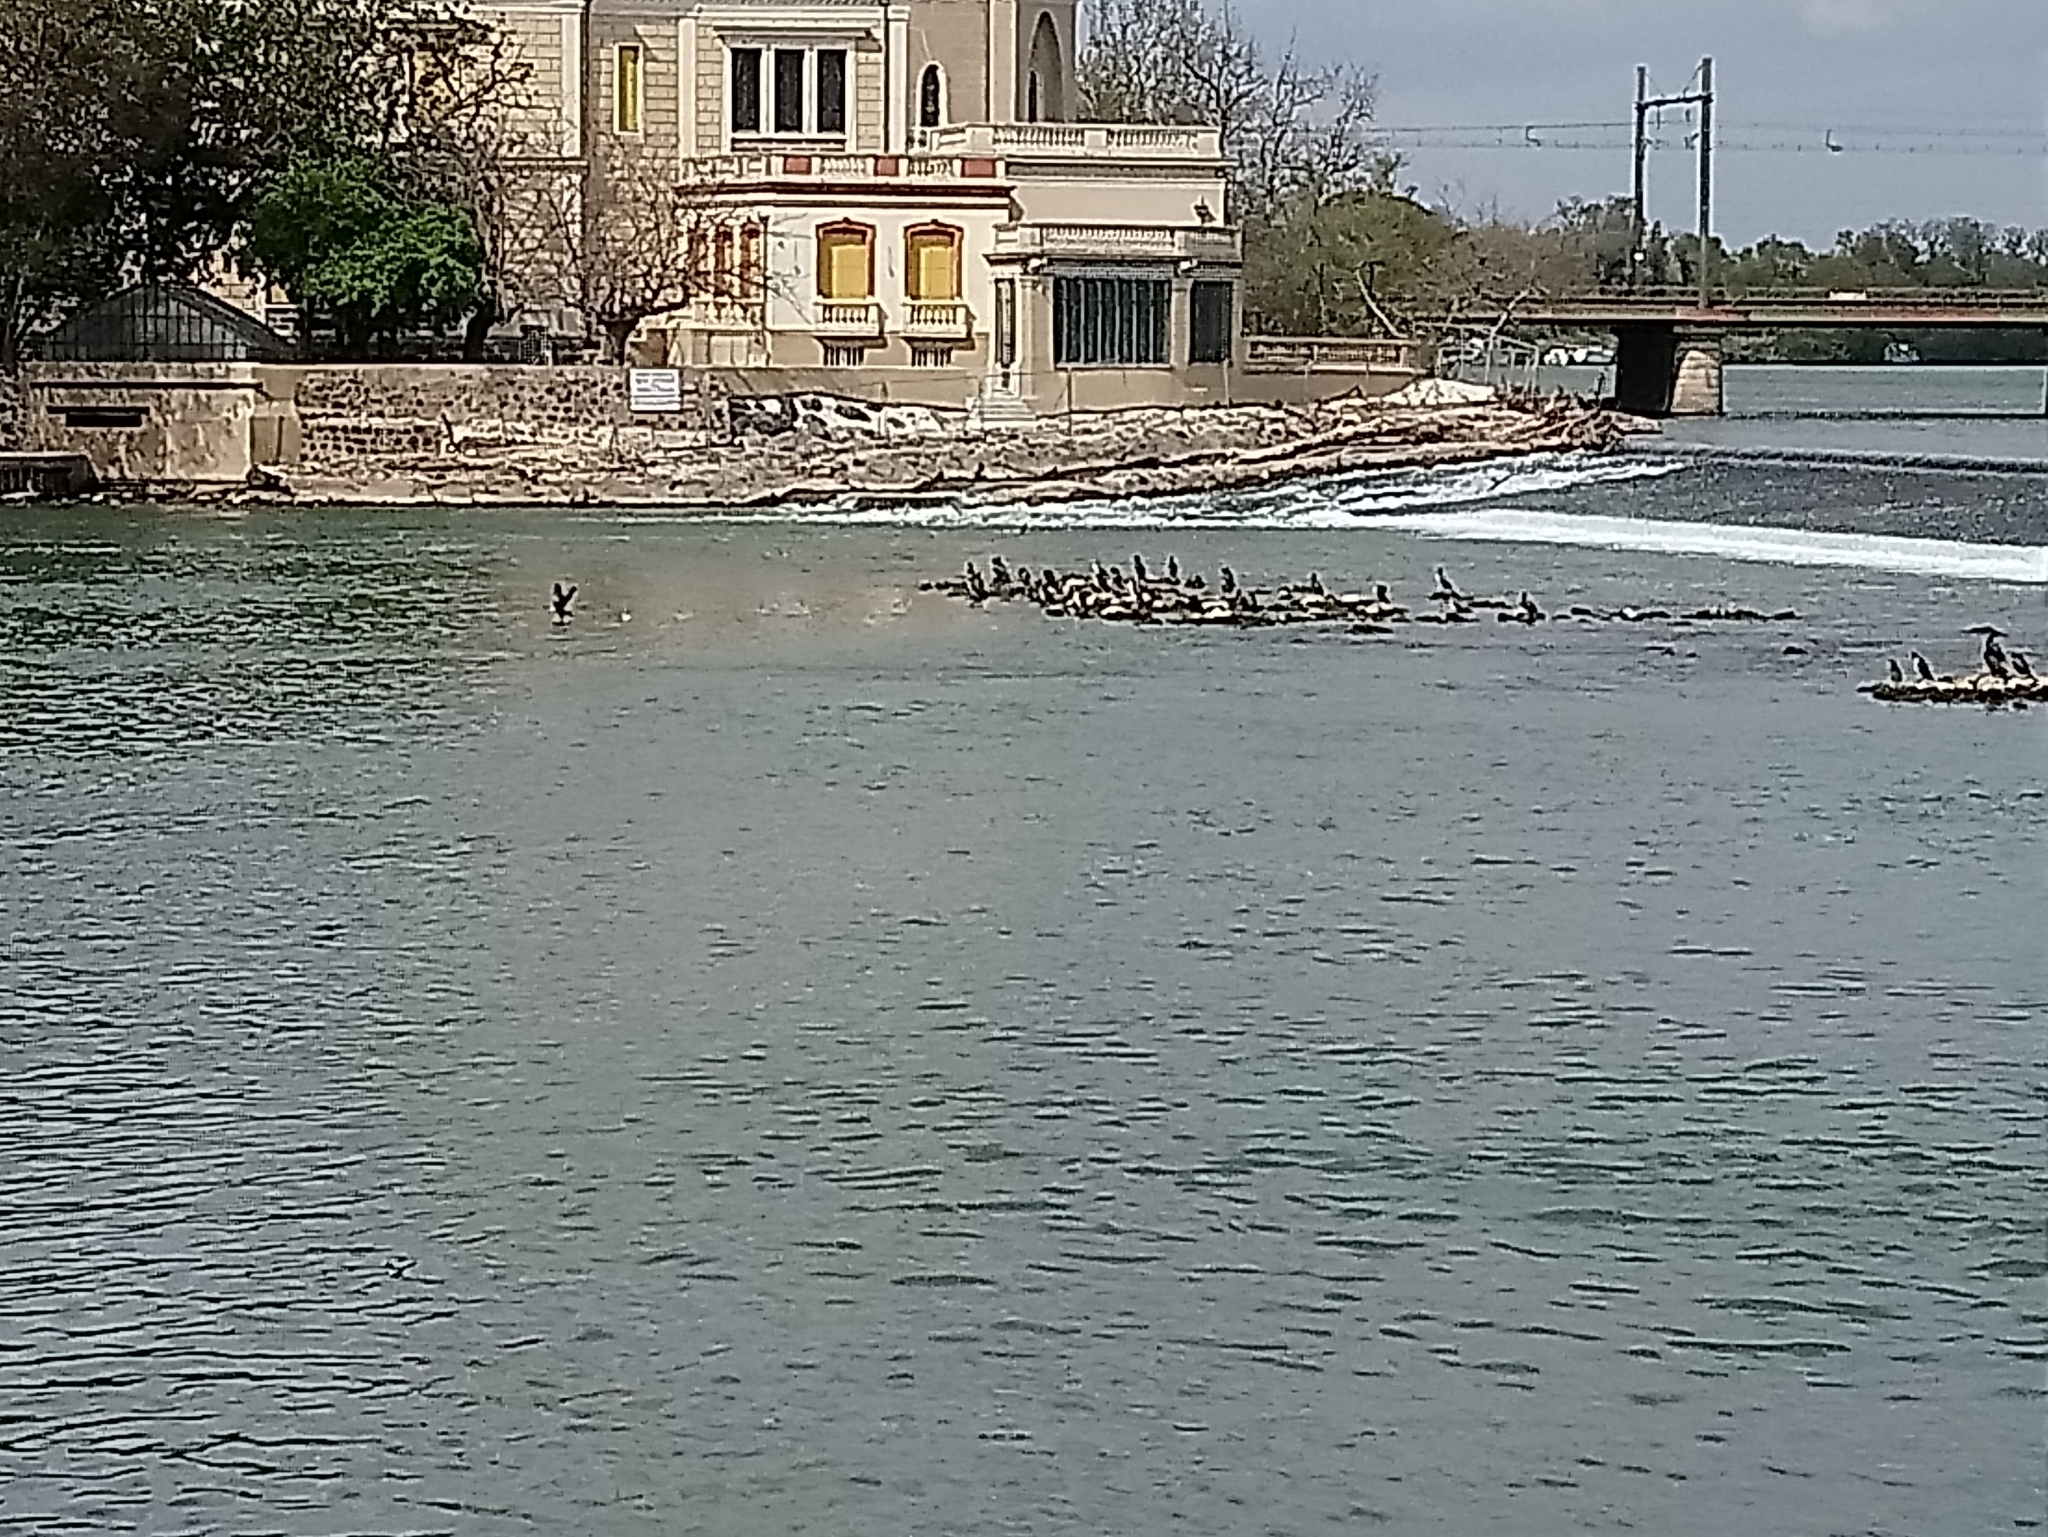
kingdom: Animalia
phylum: Chordata
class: Aves
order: Suliformes
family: Phalacrocoracidae
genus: Phalacrocorax
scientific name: Phalacrocorax carbo
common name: Great cormorant
